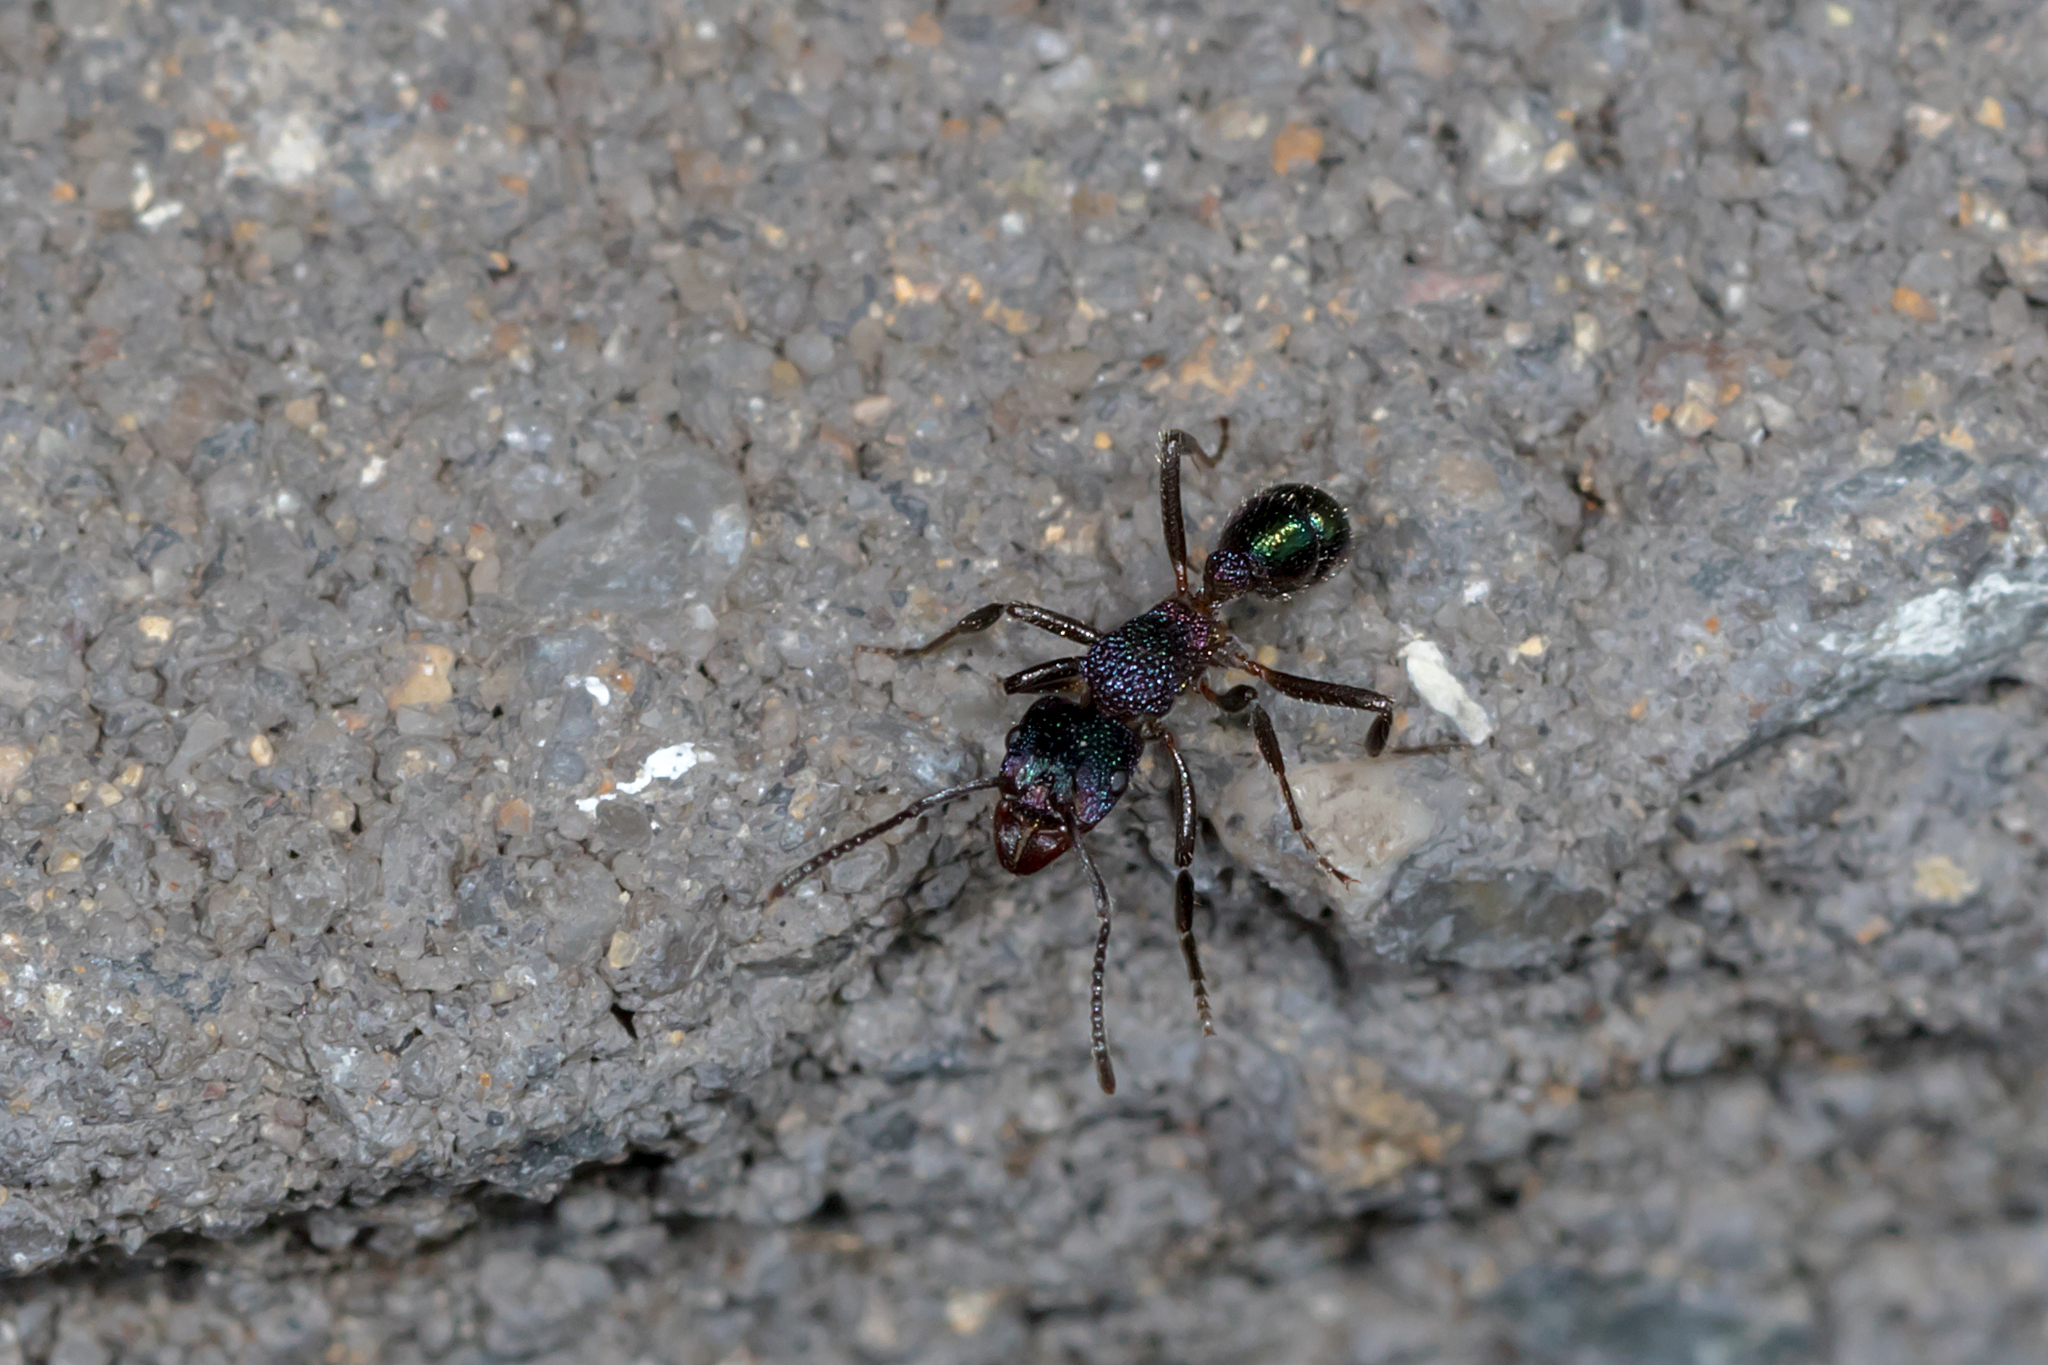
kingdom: Animalia
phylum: Arthropoda
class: Insecta
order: Hymenoptera
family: Formicidae
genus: Rhytidoponera
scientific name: Rhytidoponera metallica
